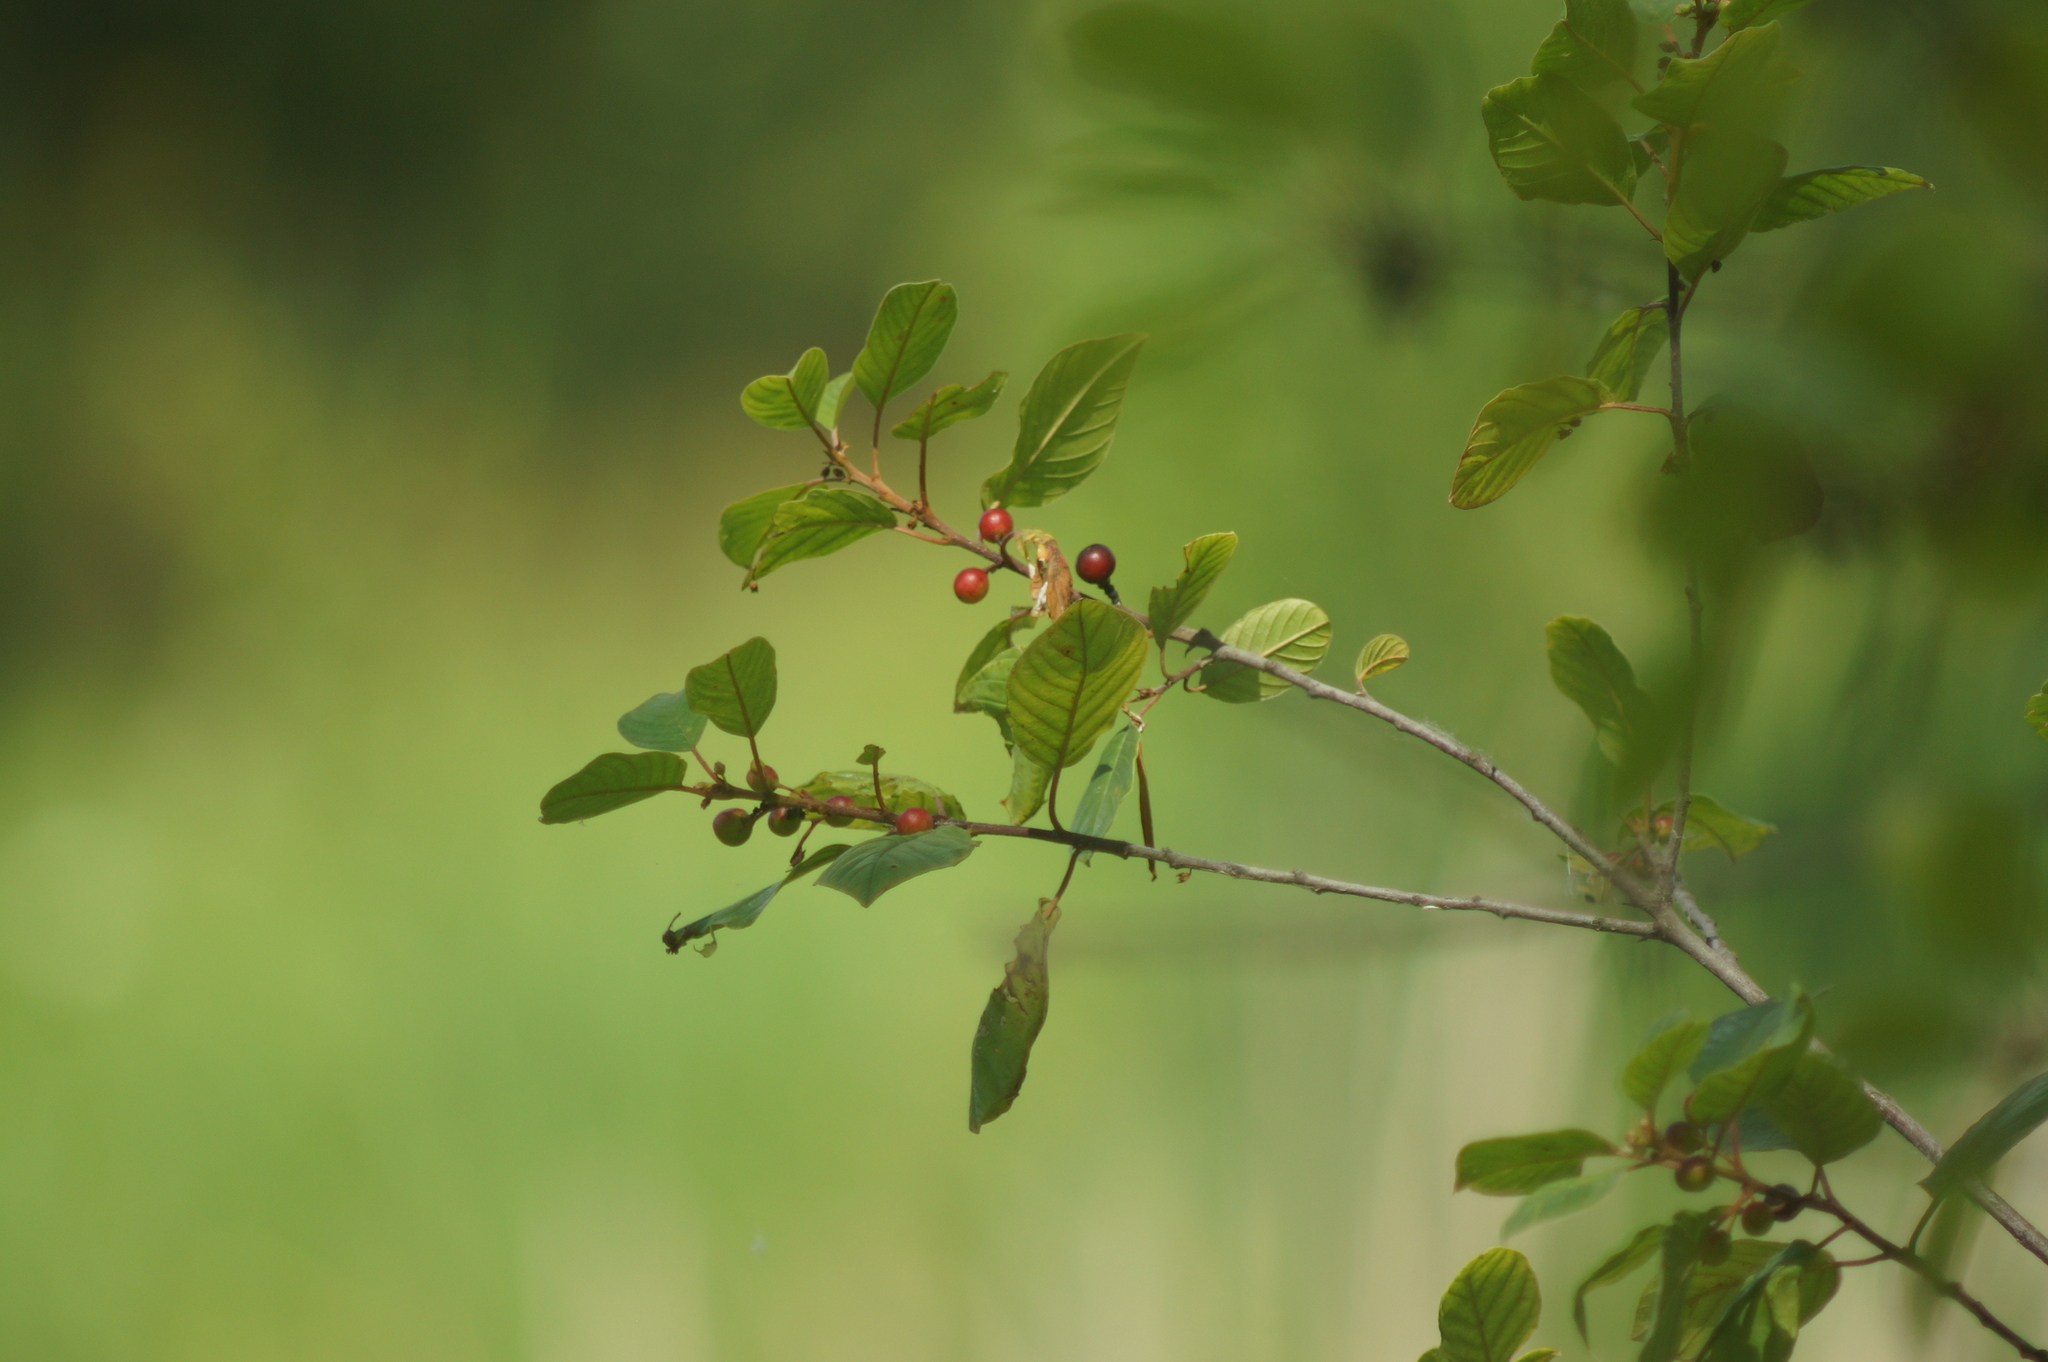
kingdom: Plantae
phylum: Tracheophyta
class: Magnoliopsida
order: Rosales
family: Rhamnaceae
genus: Frangula
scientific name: Frangula alnus
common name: Alder buckthorn
